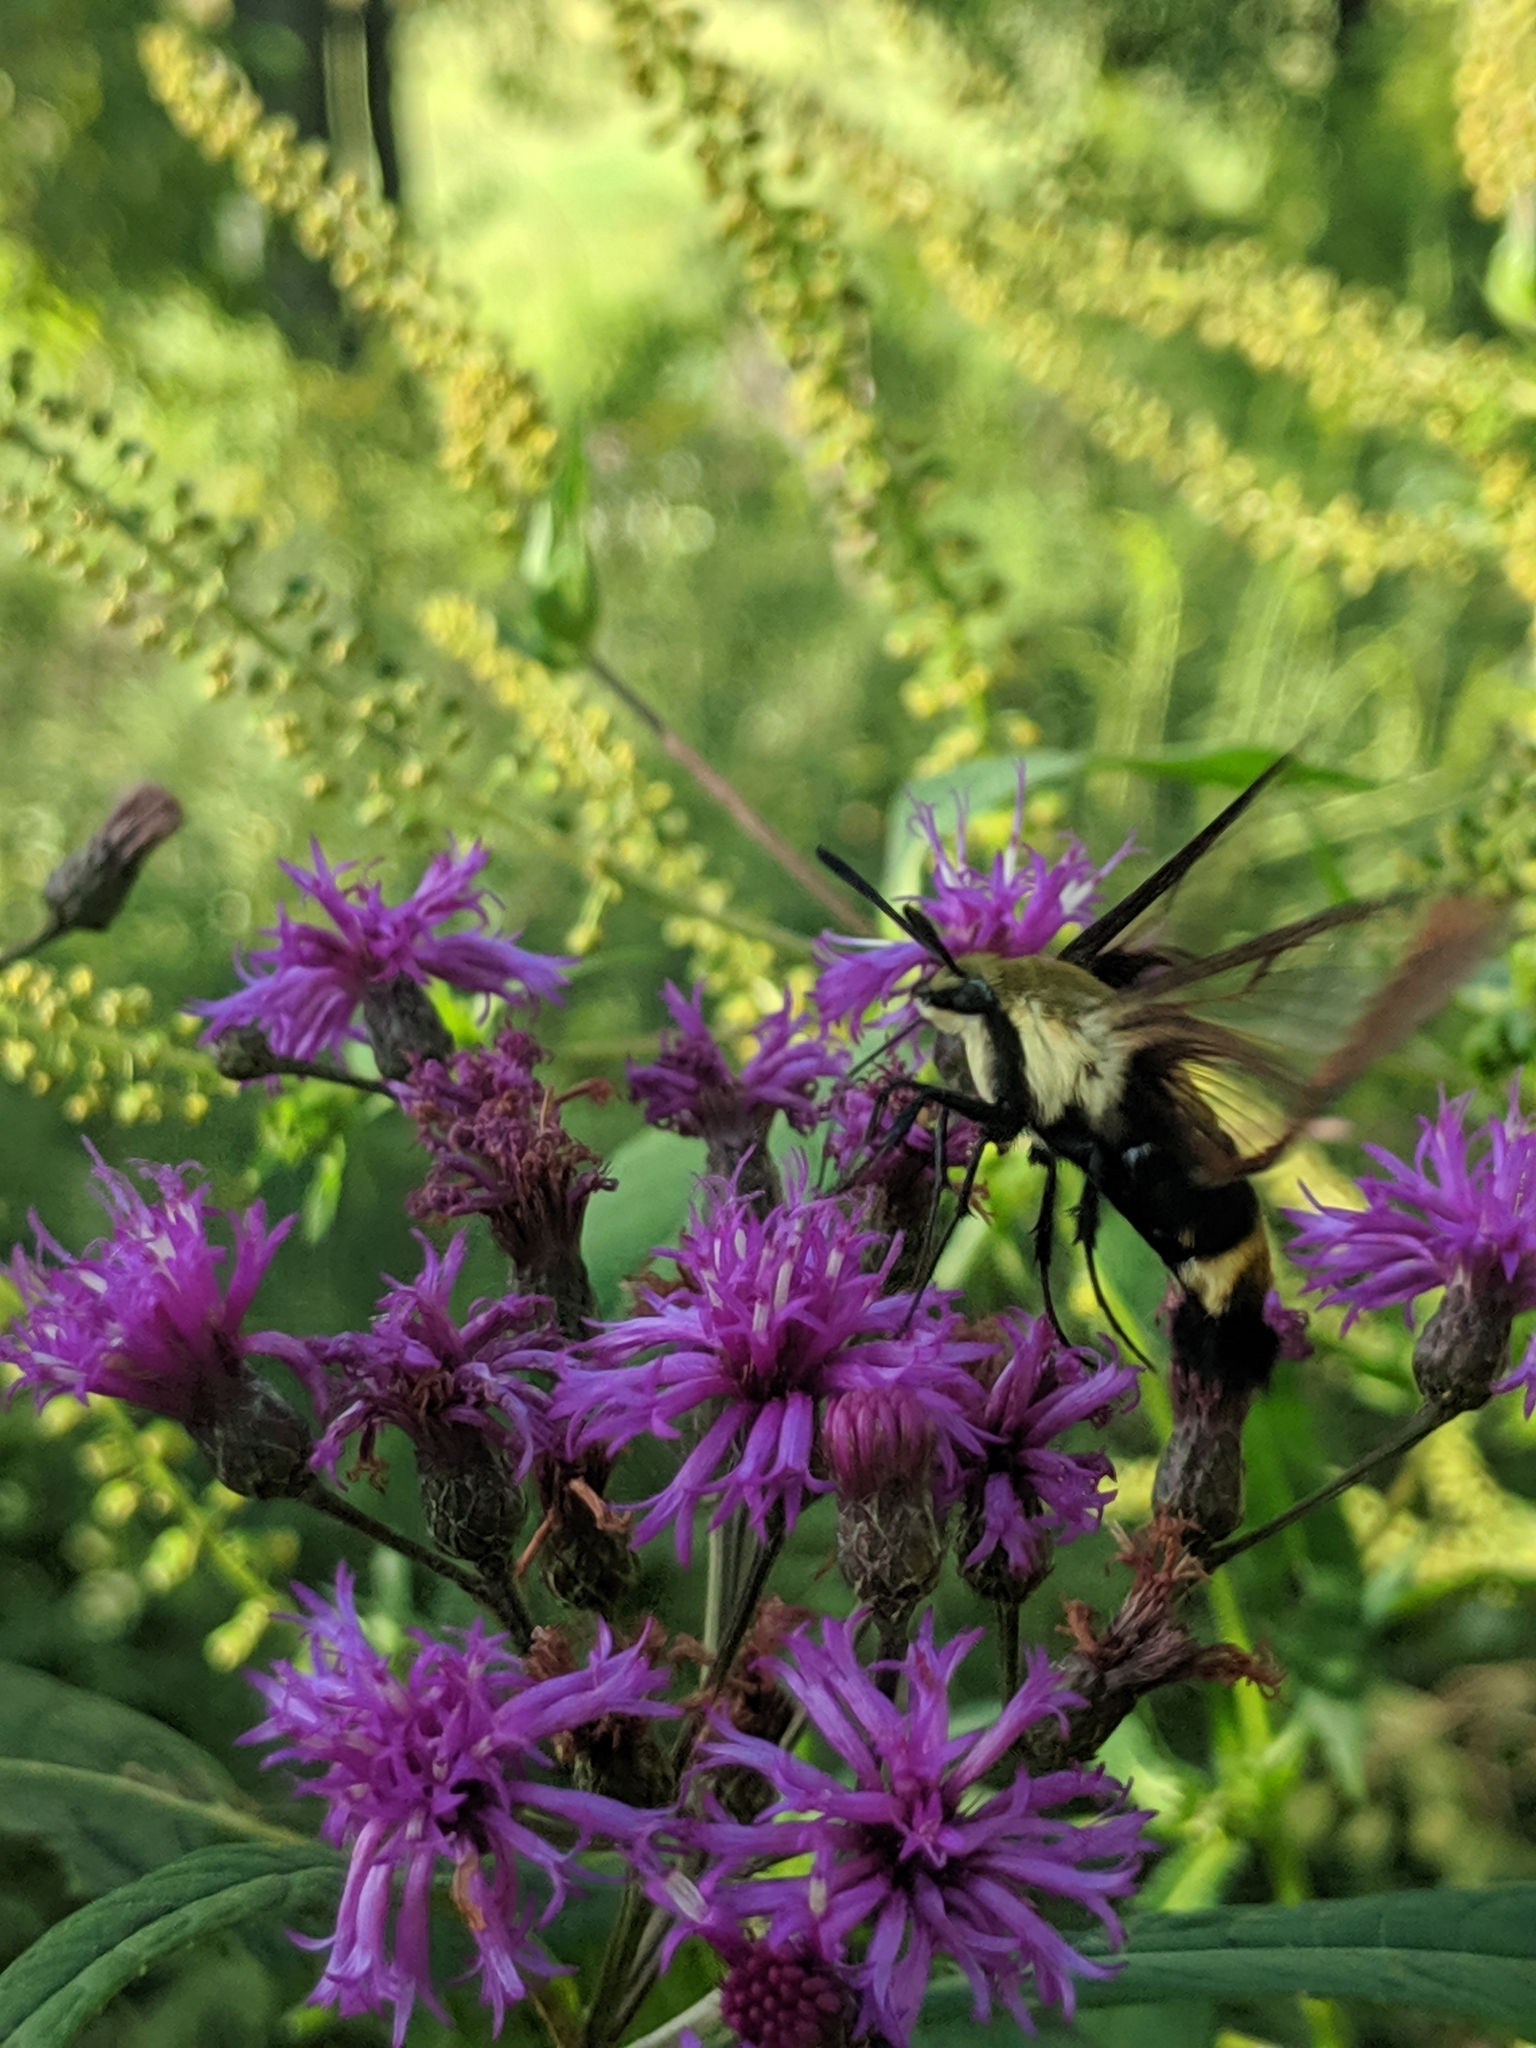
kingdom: Animalia
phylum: Arthropoda
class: Insecta
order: Lepidoptera
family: Sphingidae
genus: Hemaris
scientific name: Hemaris diffinis
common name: Bumblebee moth
